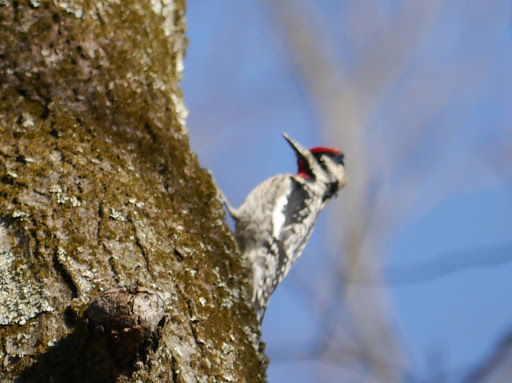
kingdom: Animalia
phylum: Chordata
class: Aves
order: Piciformes
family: Picidae
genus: Sphyrapicus
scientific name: Sphyrapicus varius
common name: Yellow-bellied sapsucker
